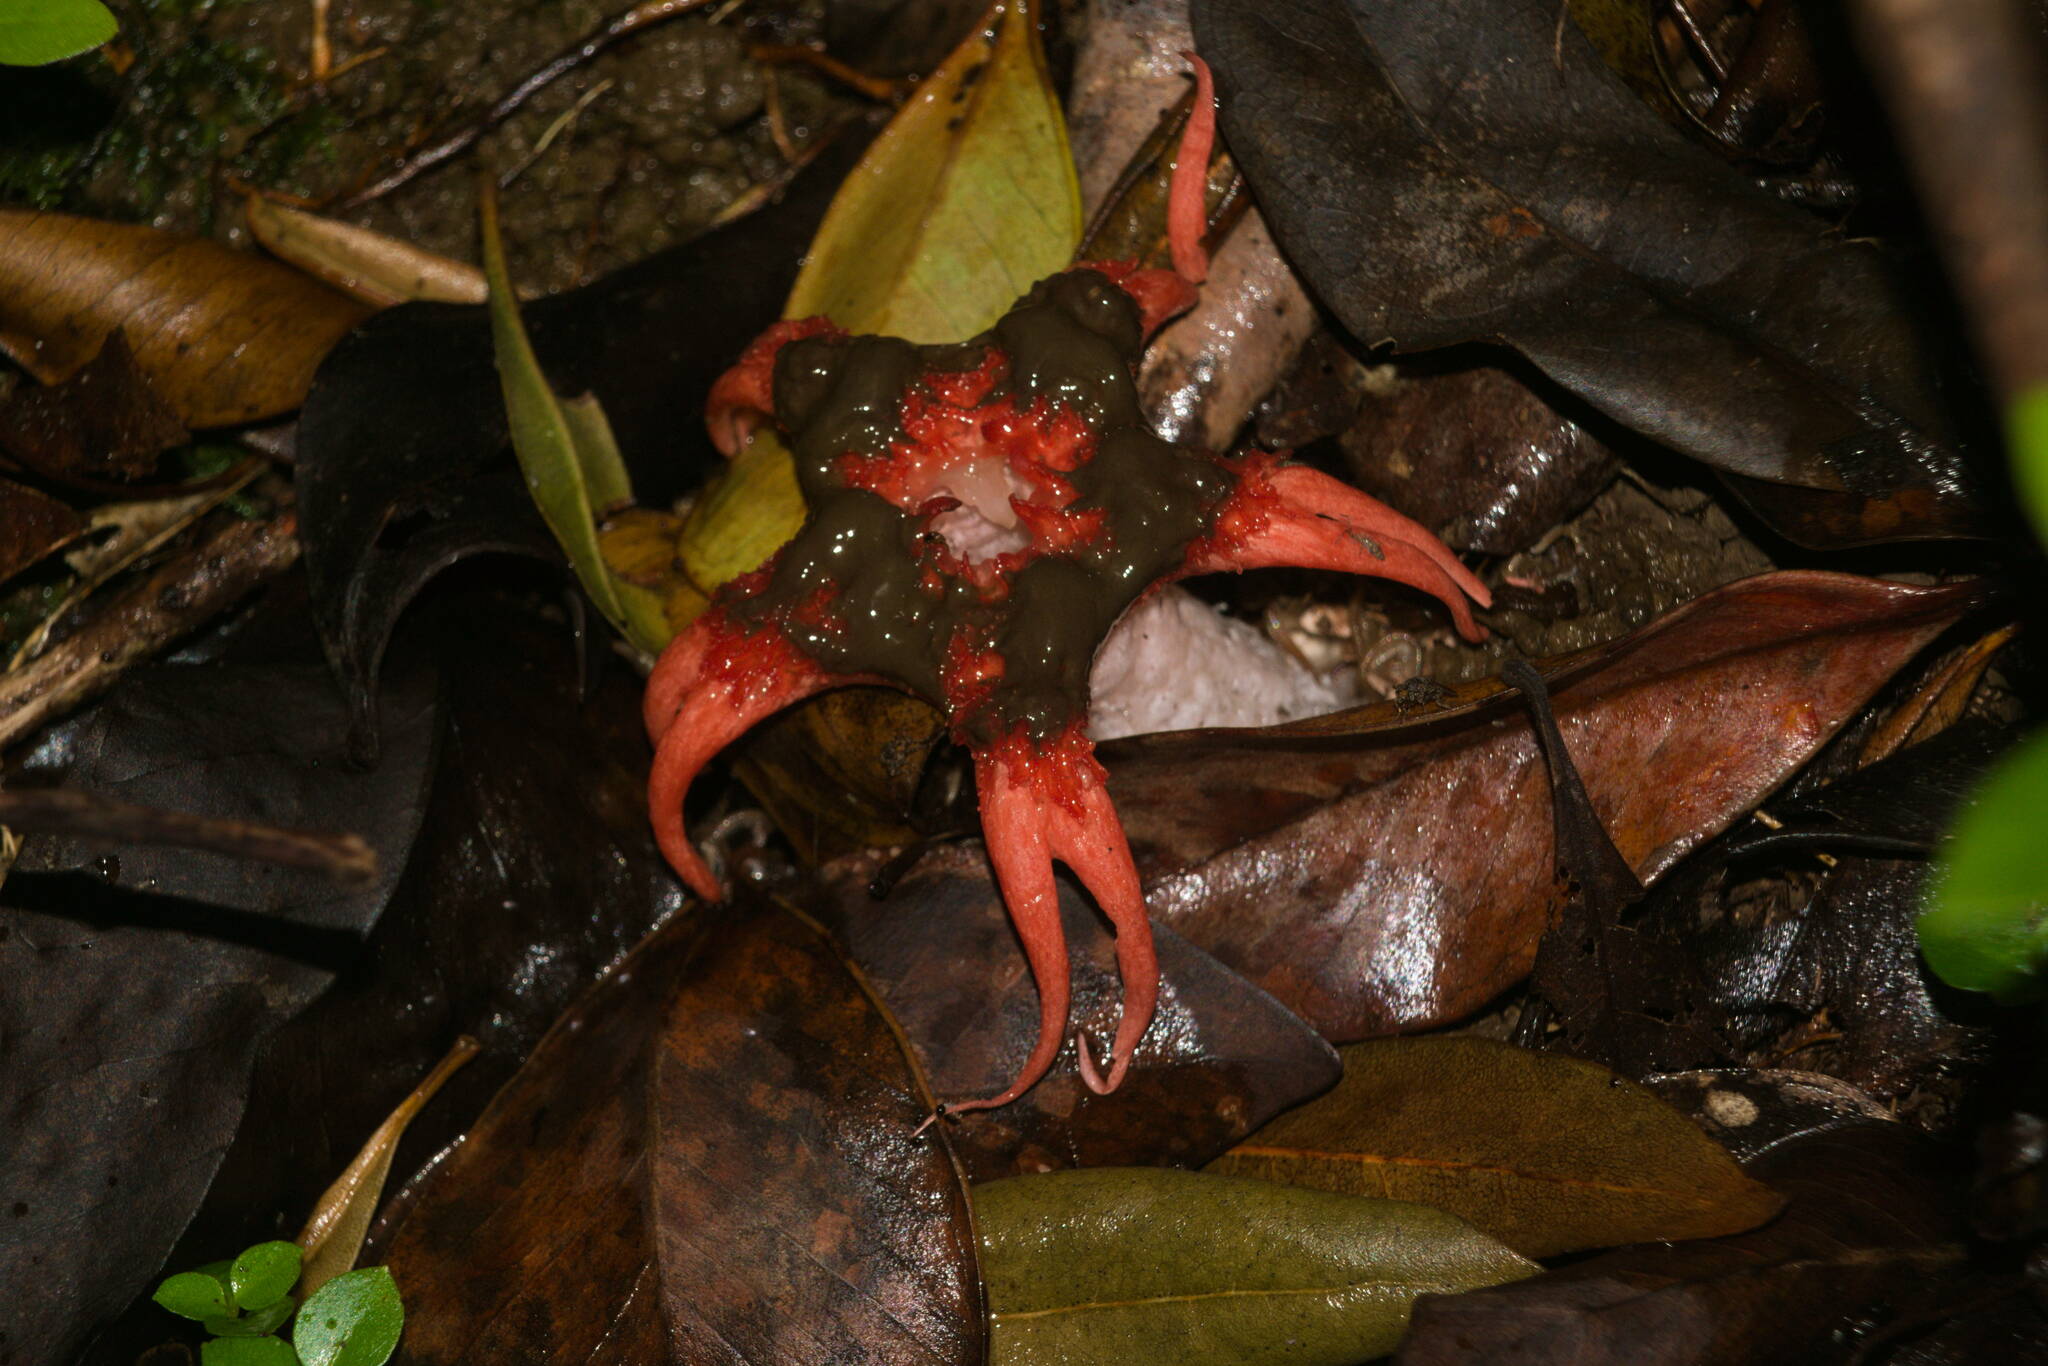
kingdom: Fungi
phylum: Basidiomycota
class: Agaricomycetes
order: Phallales
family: Phallaceae
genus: Aseroe
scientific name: Aseroe rubra
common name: Starfish fungus
